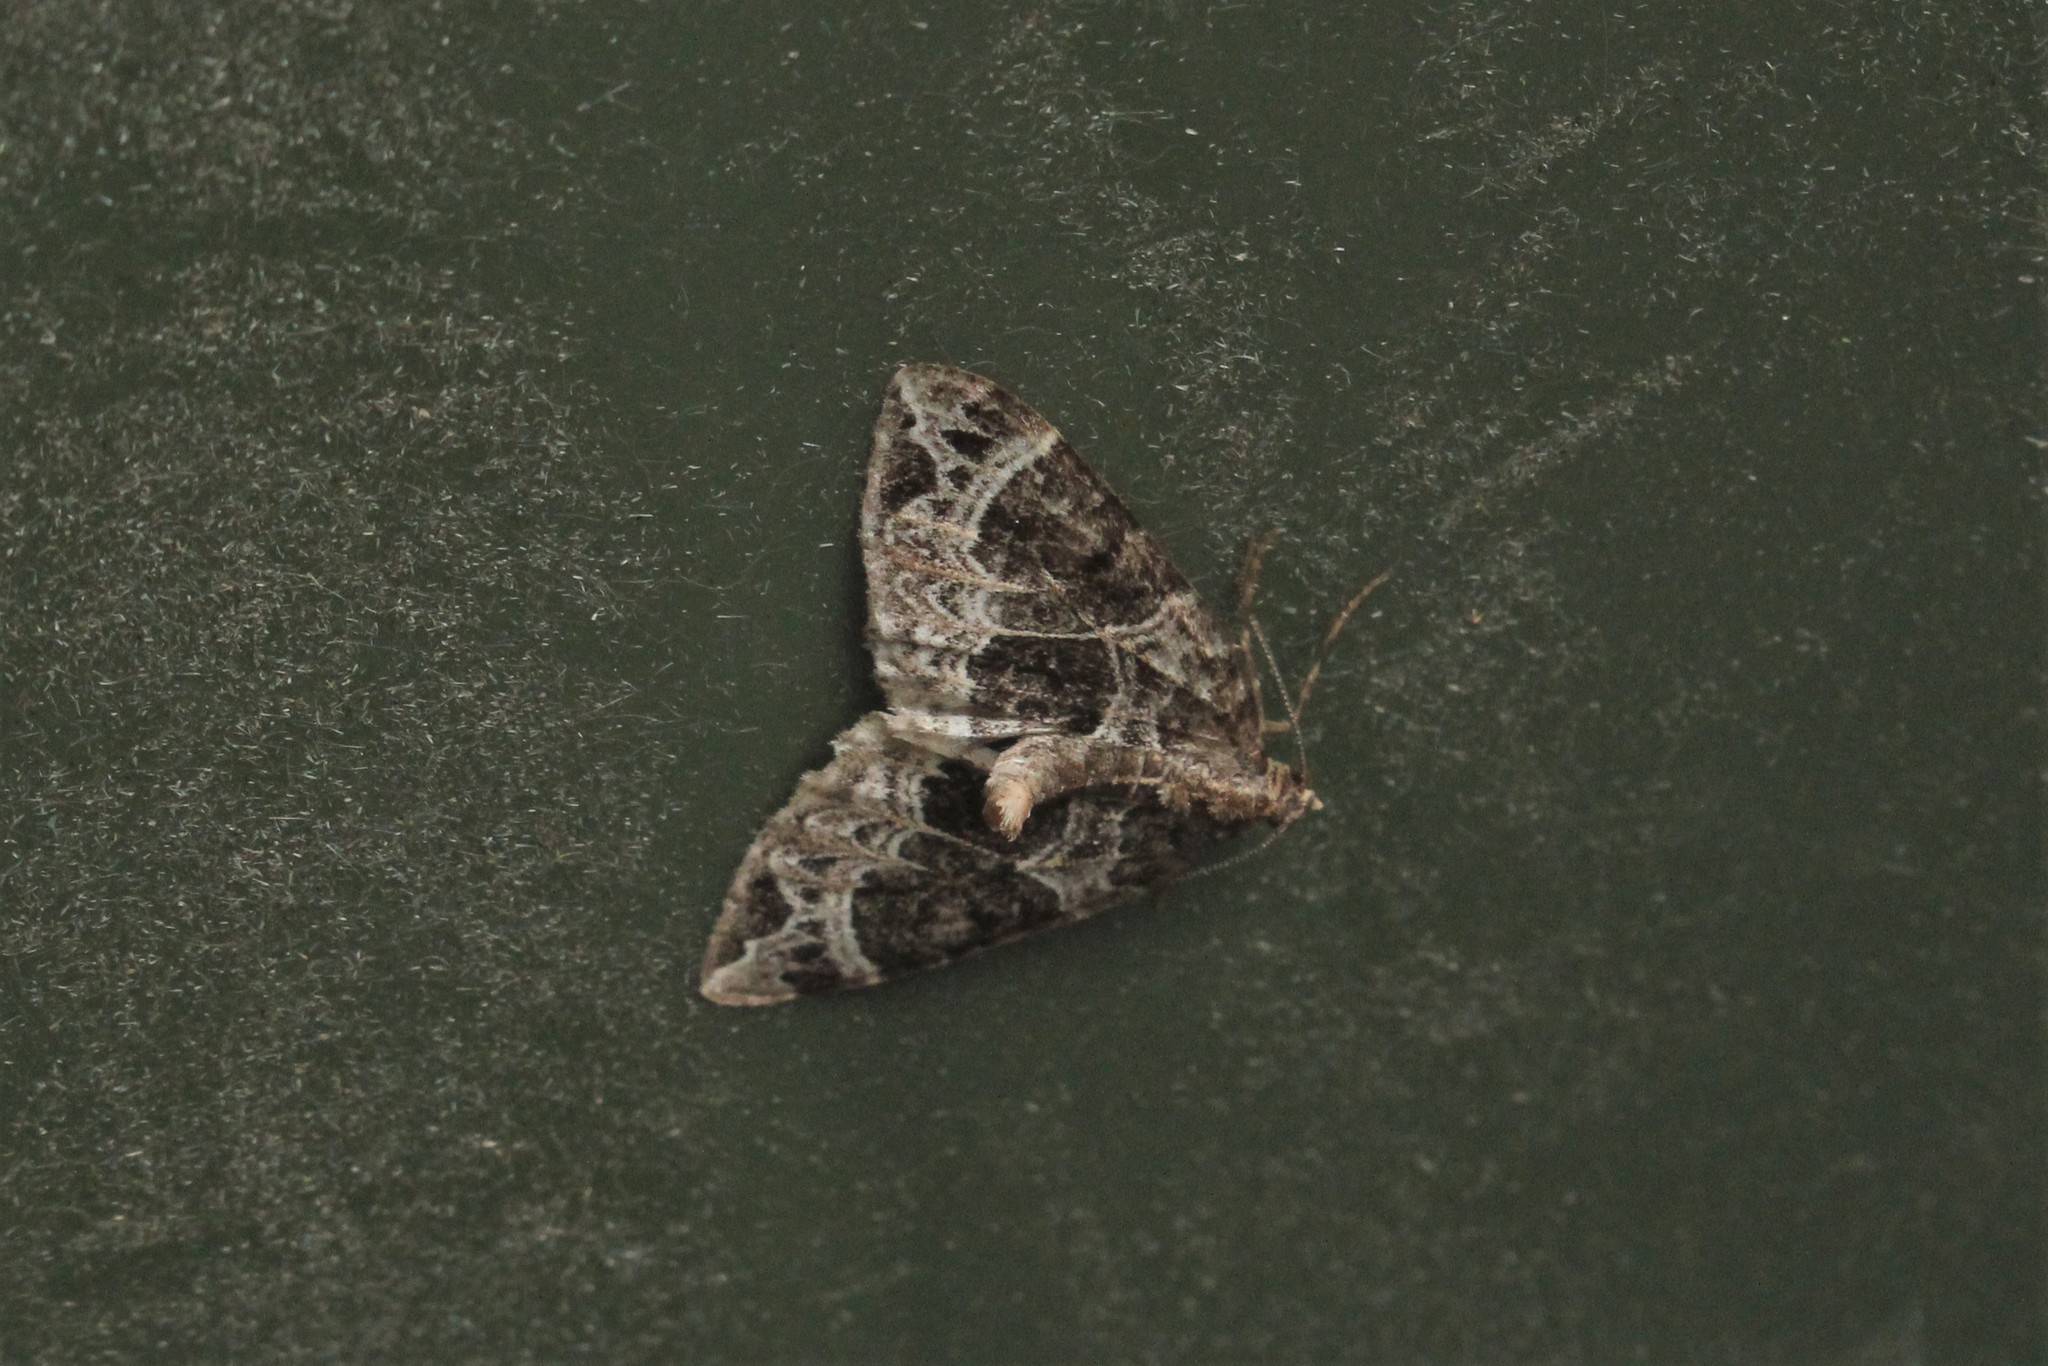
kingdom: Animalia
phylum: Arthropoda
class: Insecta
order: Lepidoptera
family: Geometridae
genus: Ecliptopera
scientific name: Ecliptopera silaceata
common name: Small phoenix
